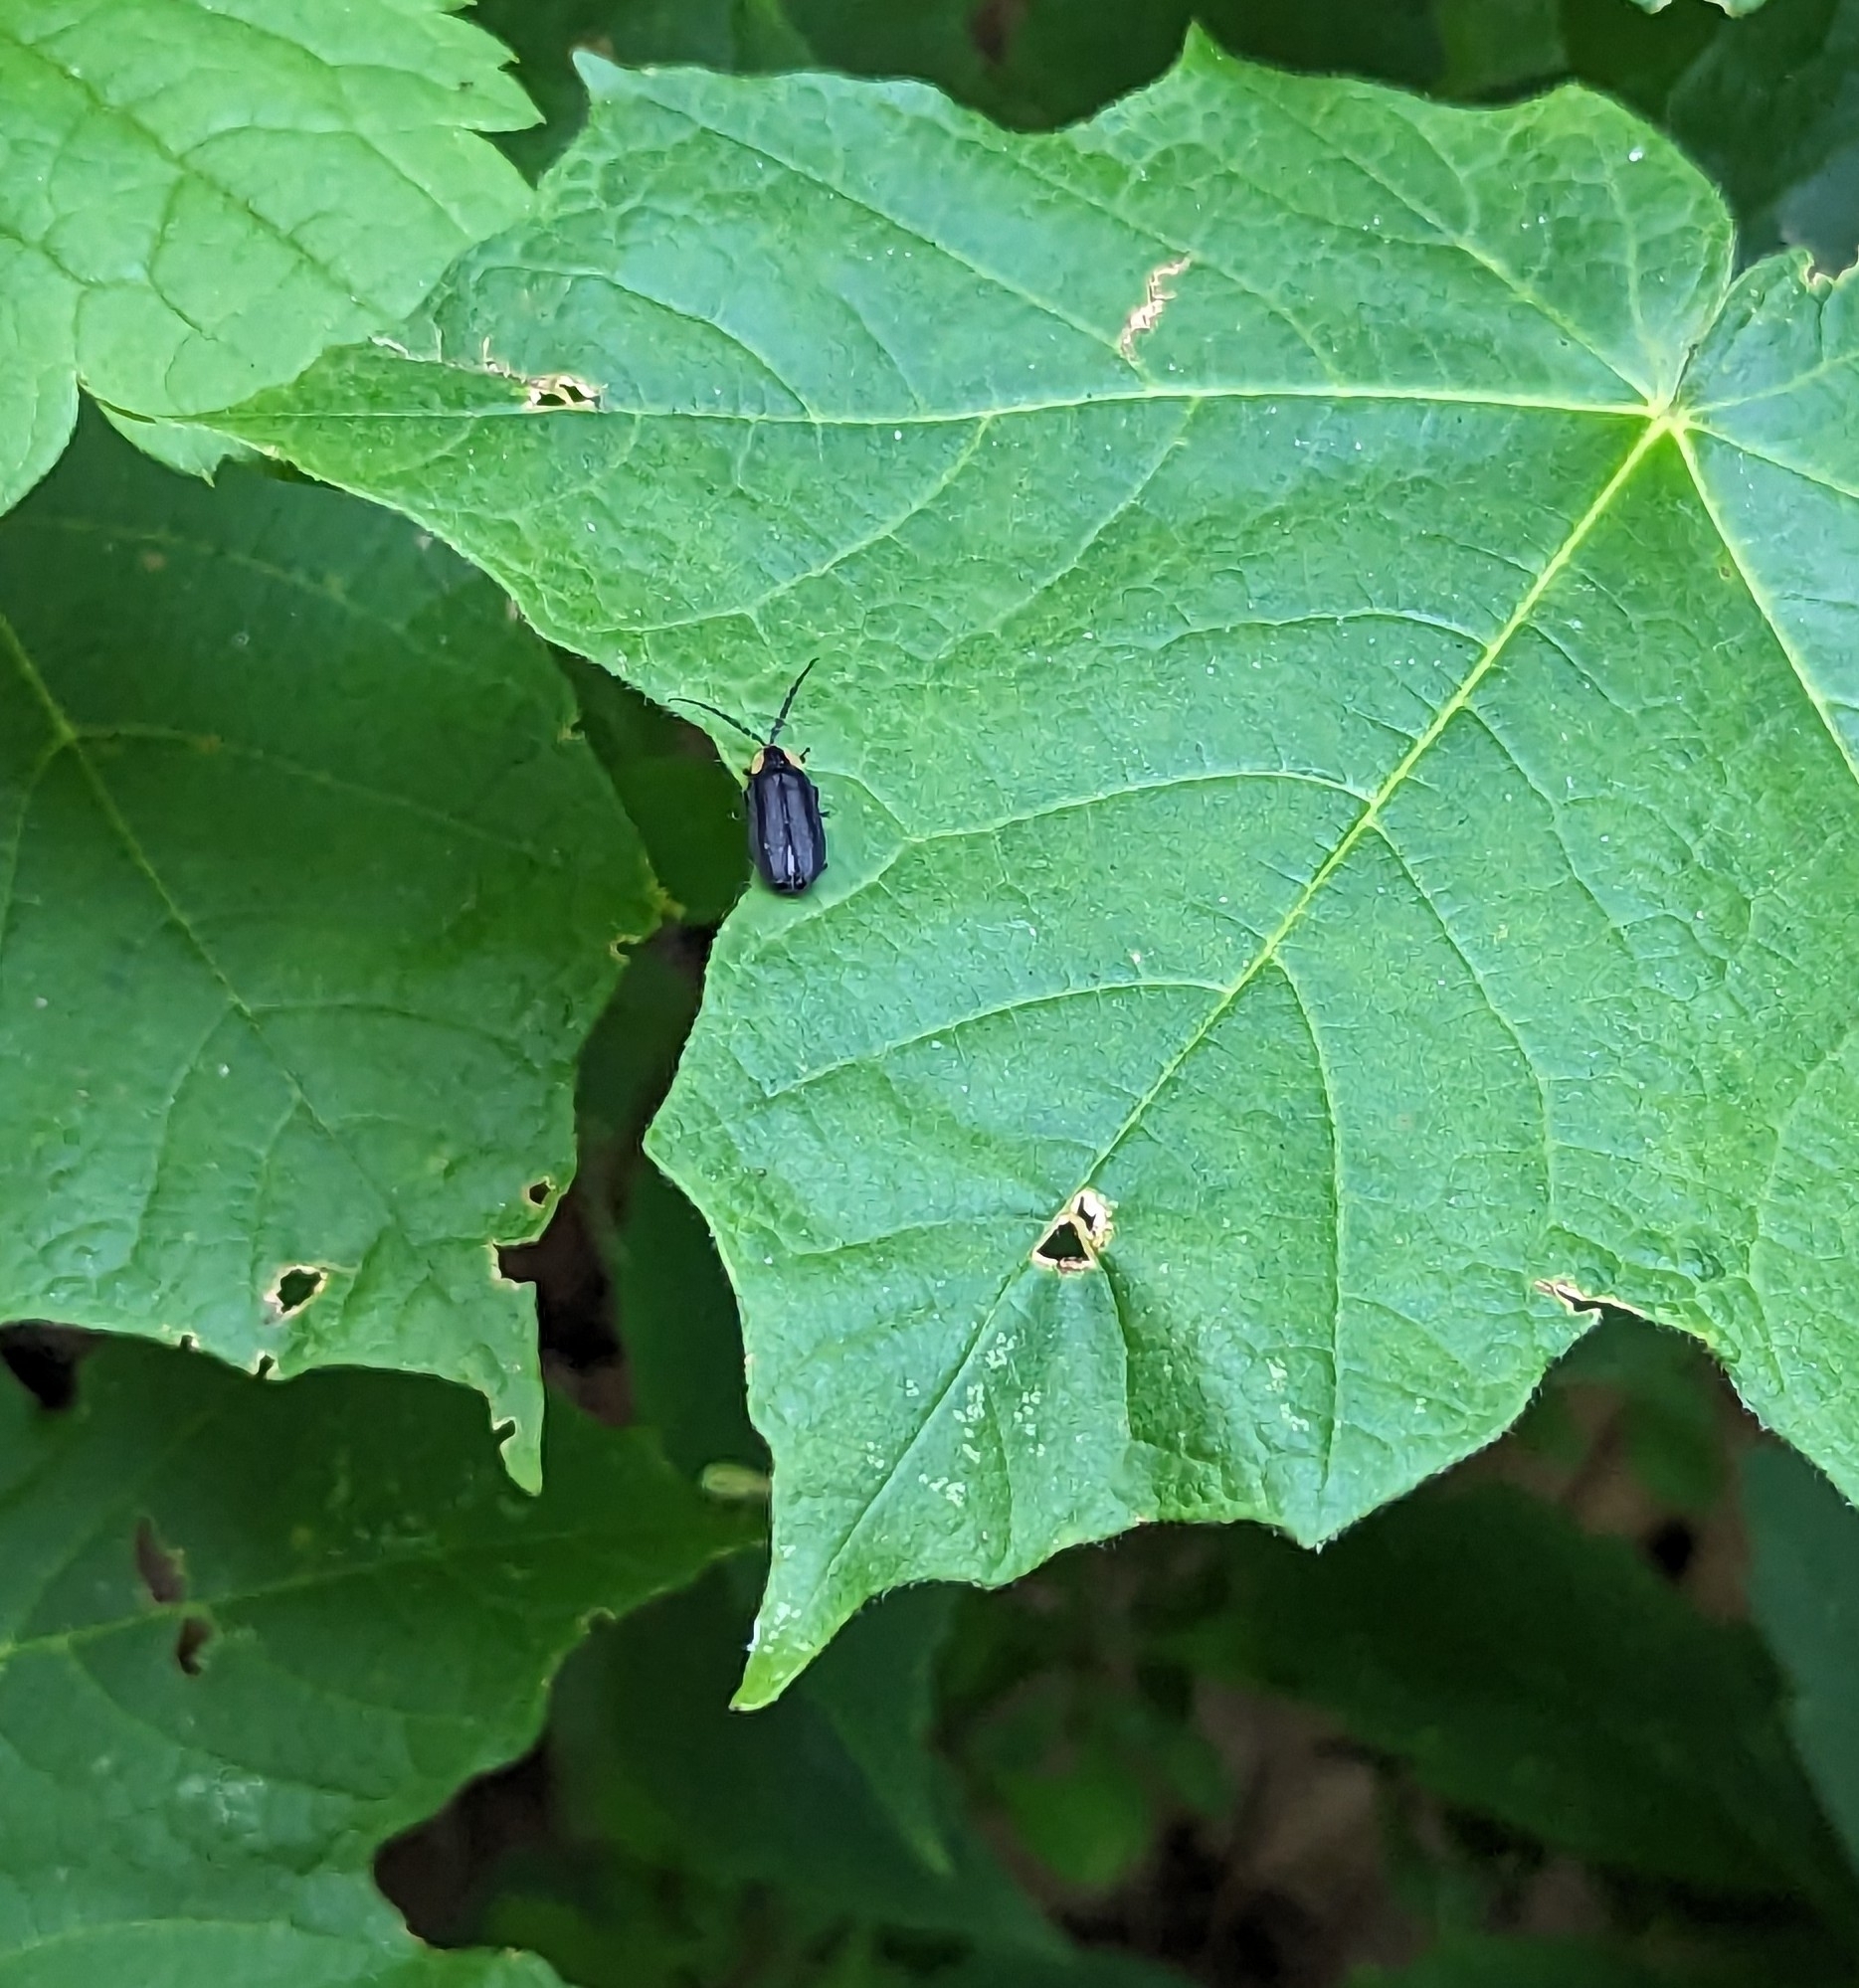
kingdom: Animalia
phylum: Arthropoda
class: Insecta
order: Coleoptera
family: Lampyridae
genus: Lucidota
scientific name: Lucidota atra
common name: Black firefly
